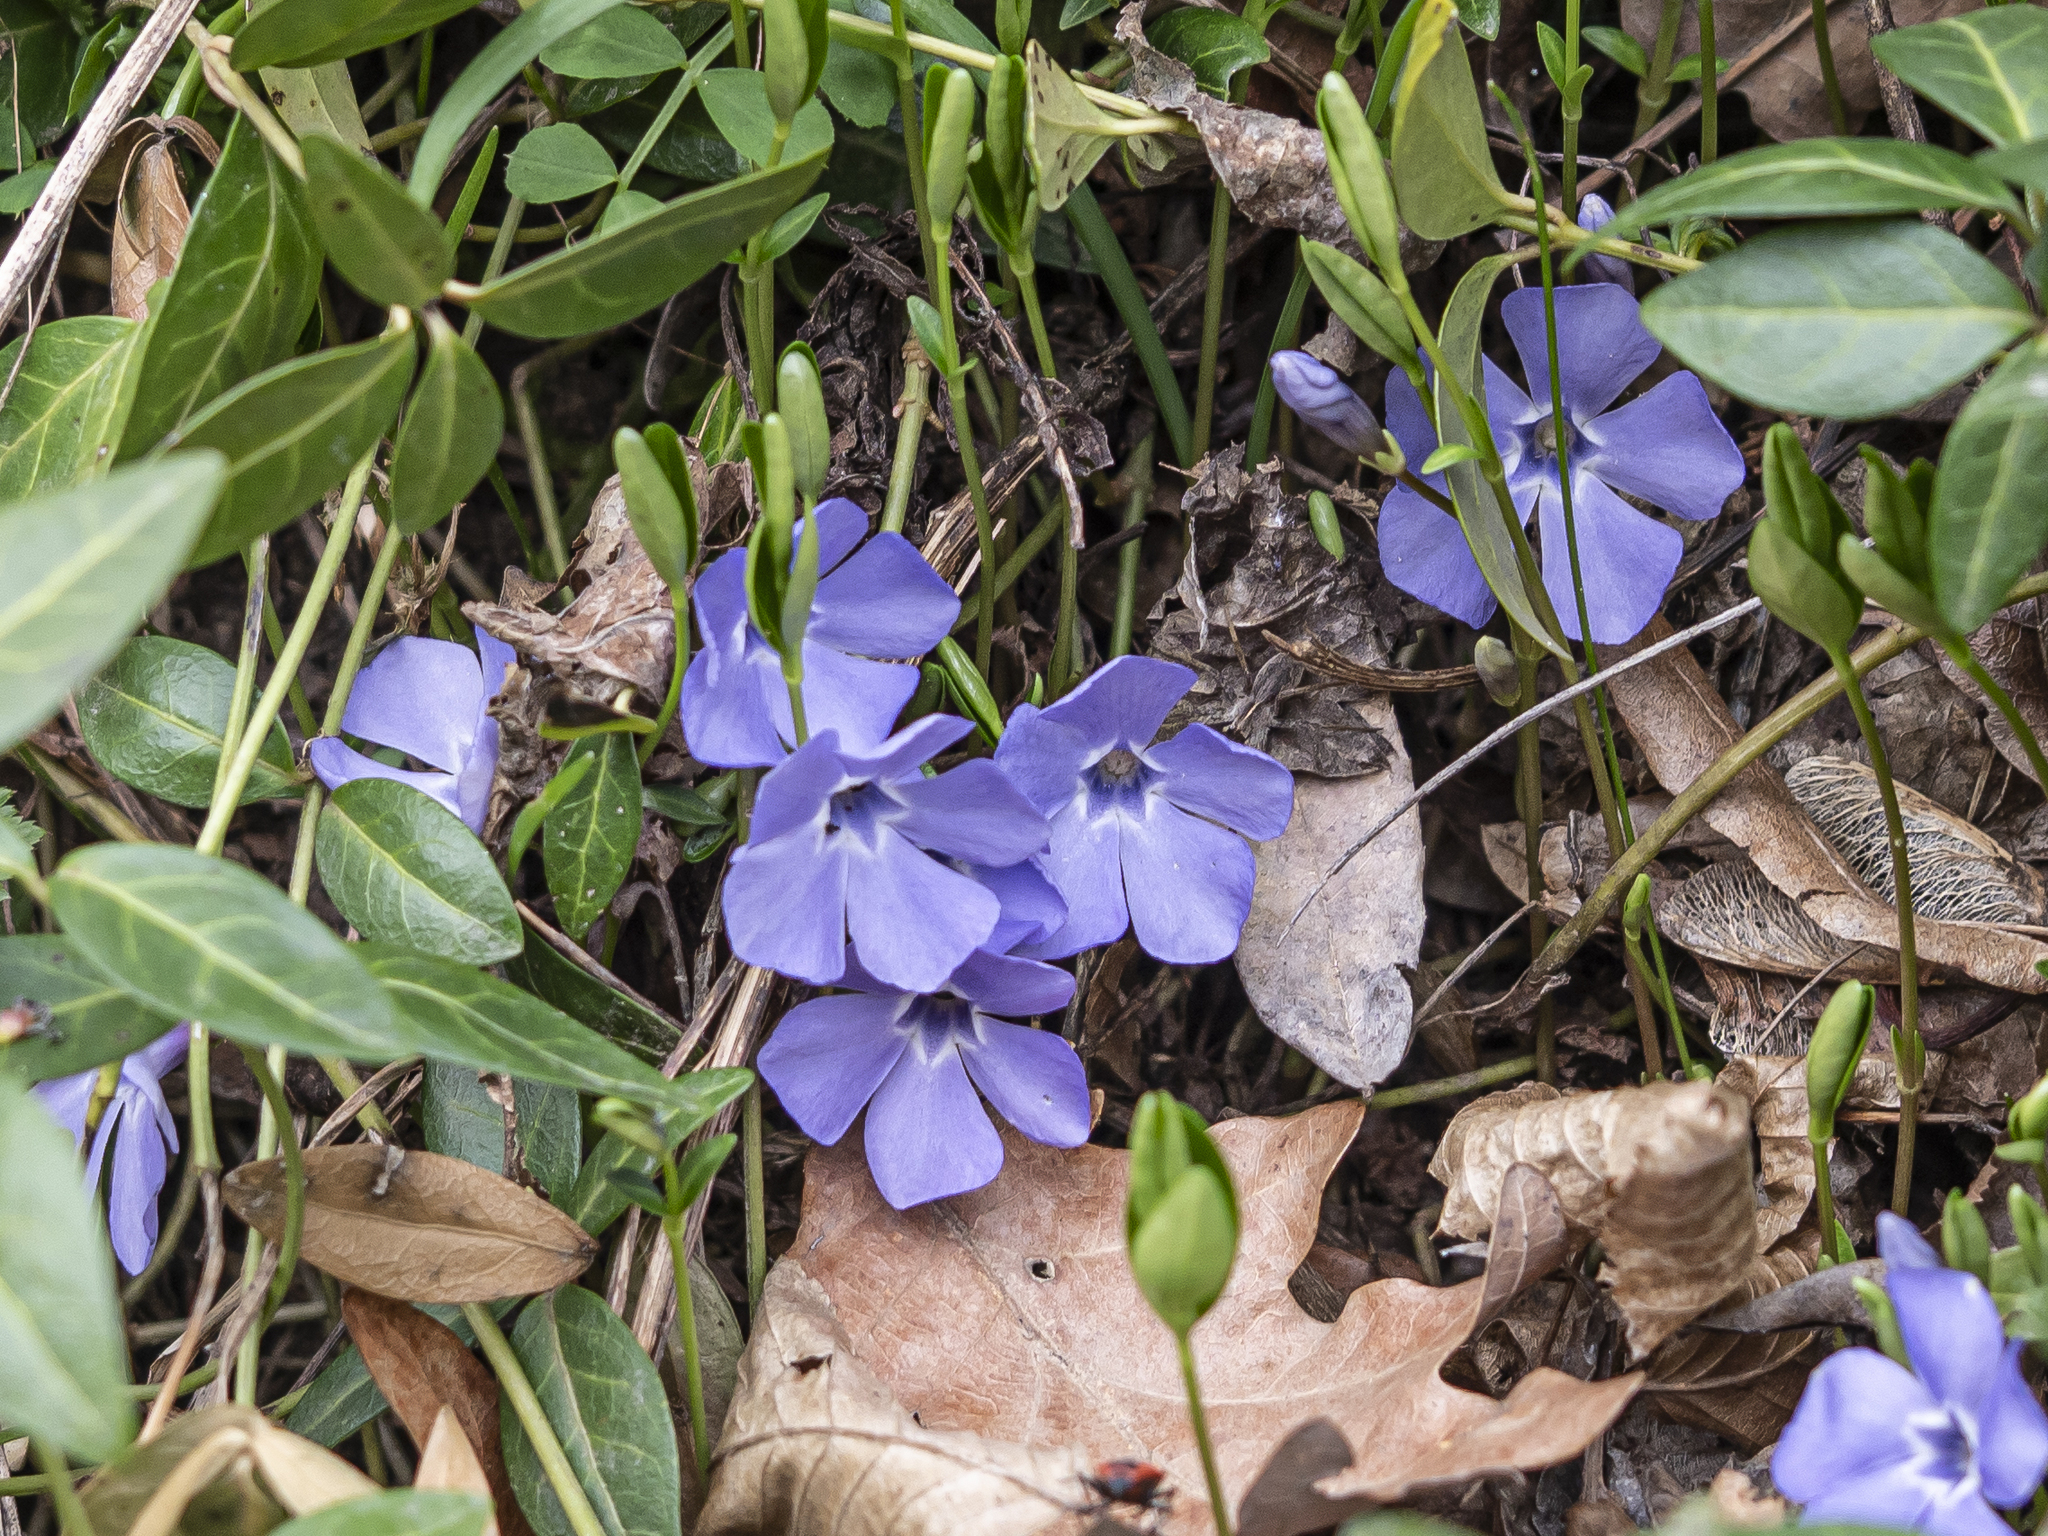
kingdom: Plantae
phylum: Tracheophyta
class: Magnoliopsida
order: Gentianales
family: Apocynaceae
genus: Vinca
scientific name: Vinca minor
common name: Lesser periwinkle
